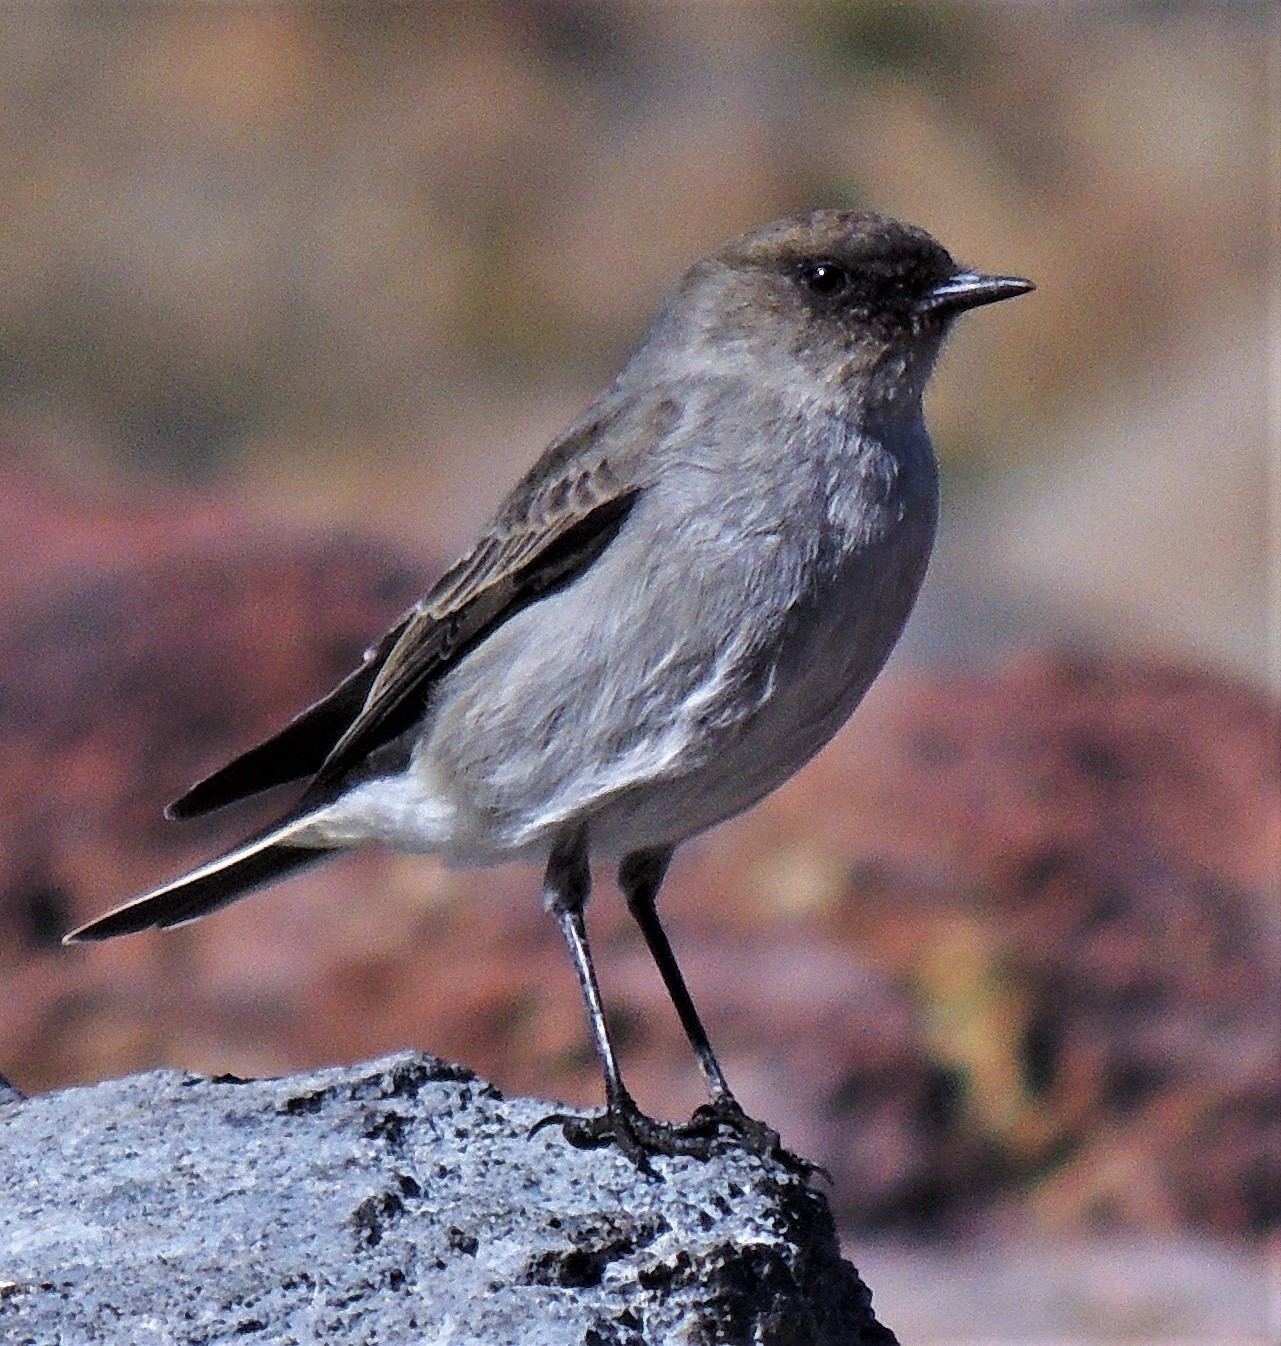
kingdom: Animalia
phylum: Chordata
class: Aves
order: Passeriformes
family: Tyrannidae
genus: Muscisaxicola
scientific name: Muscisaxicola maclovianus
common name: Dark-faced ground tyrant
